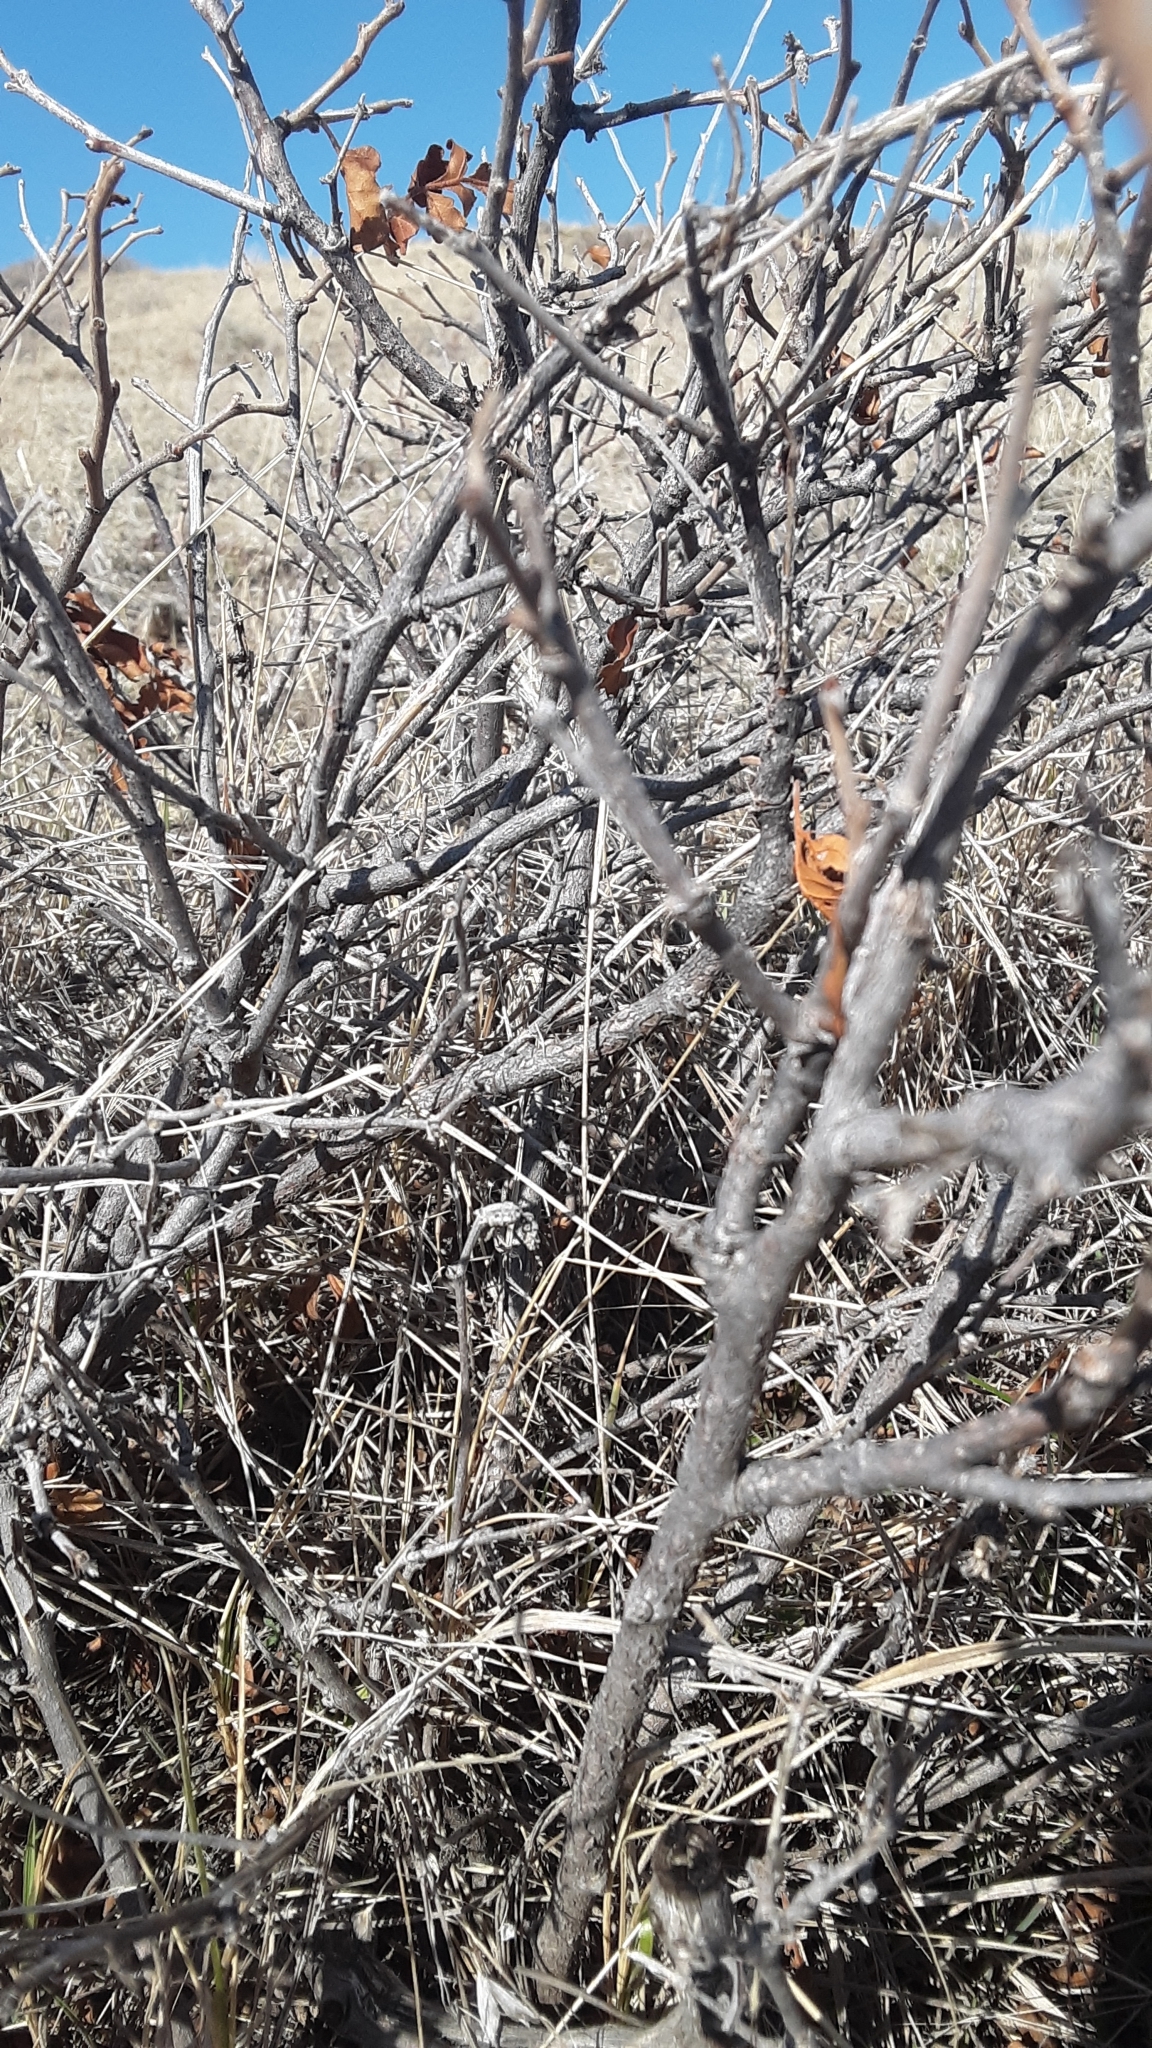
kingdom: Plantae
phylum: Tracheophyta
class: Magnoliopsida
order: Sapindales
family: Anacardiaceae
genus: Rhus
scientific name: Rhus aromatica
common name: Aromatic sumac
